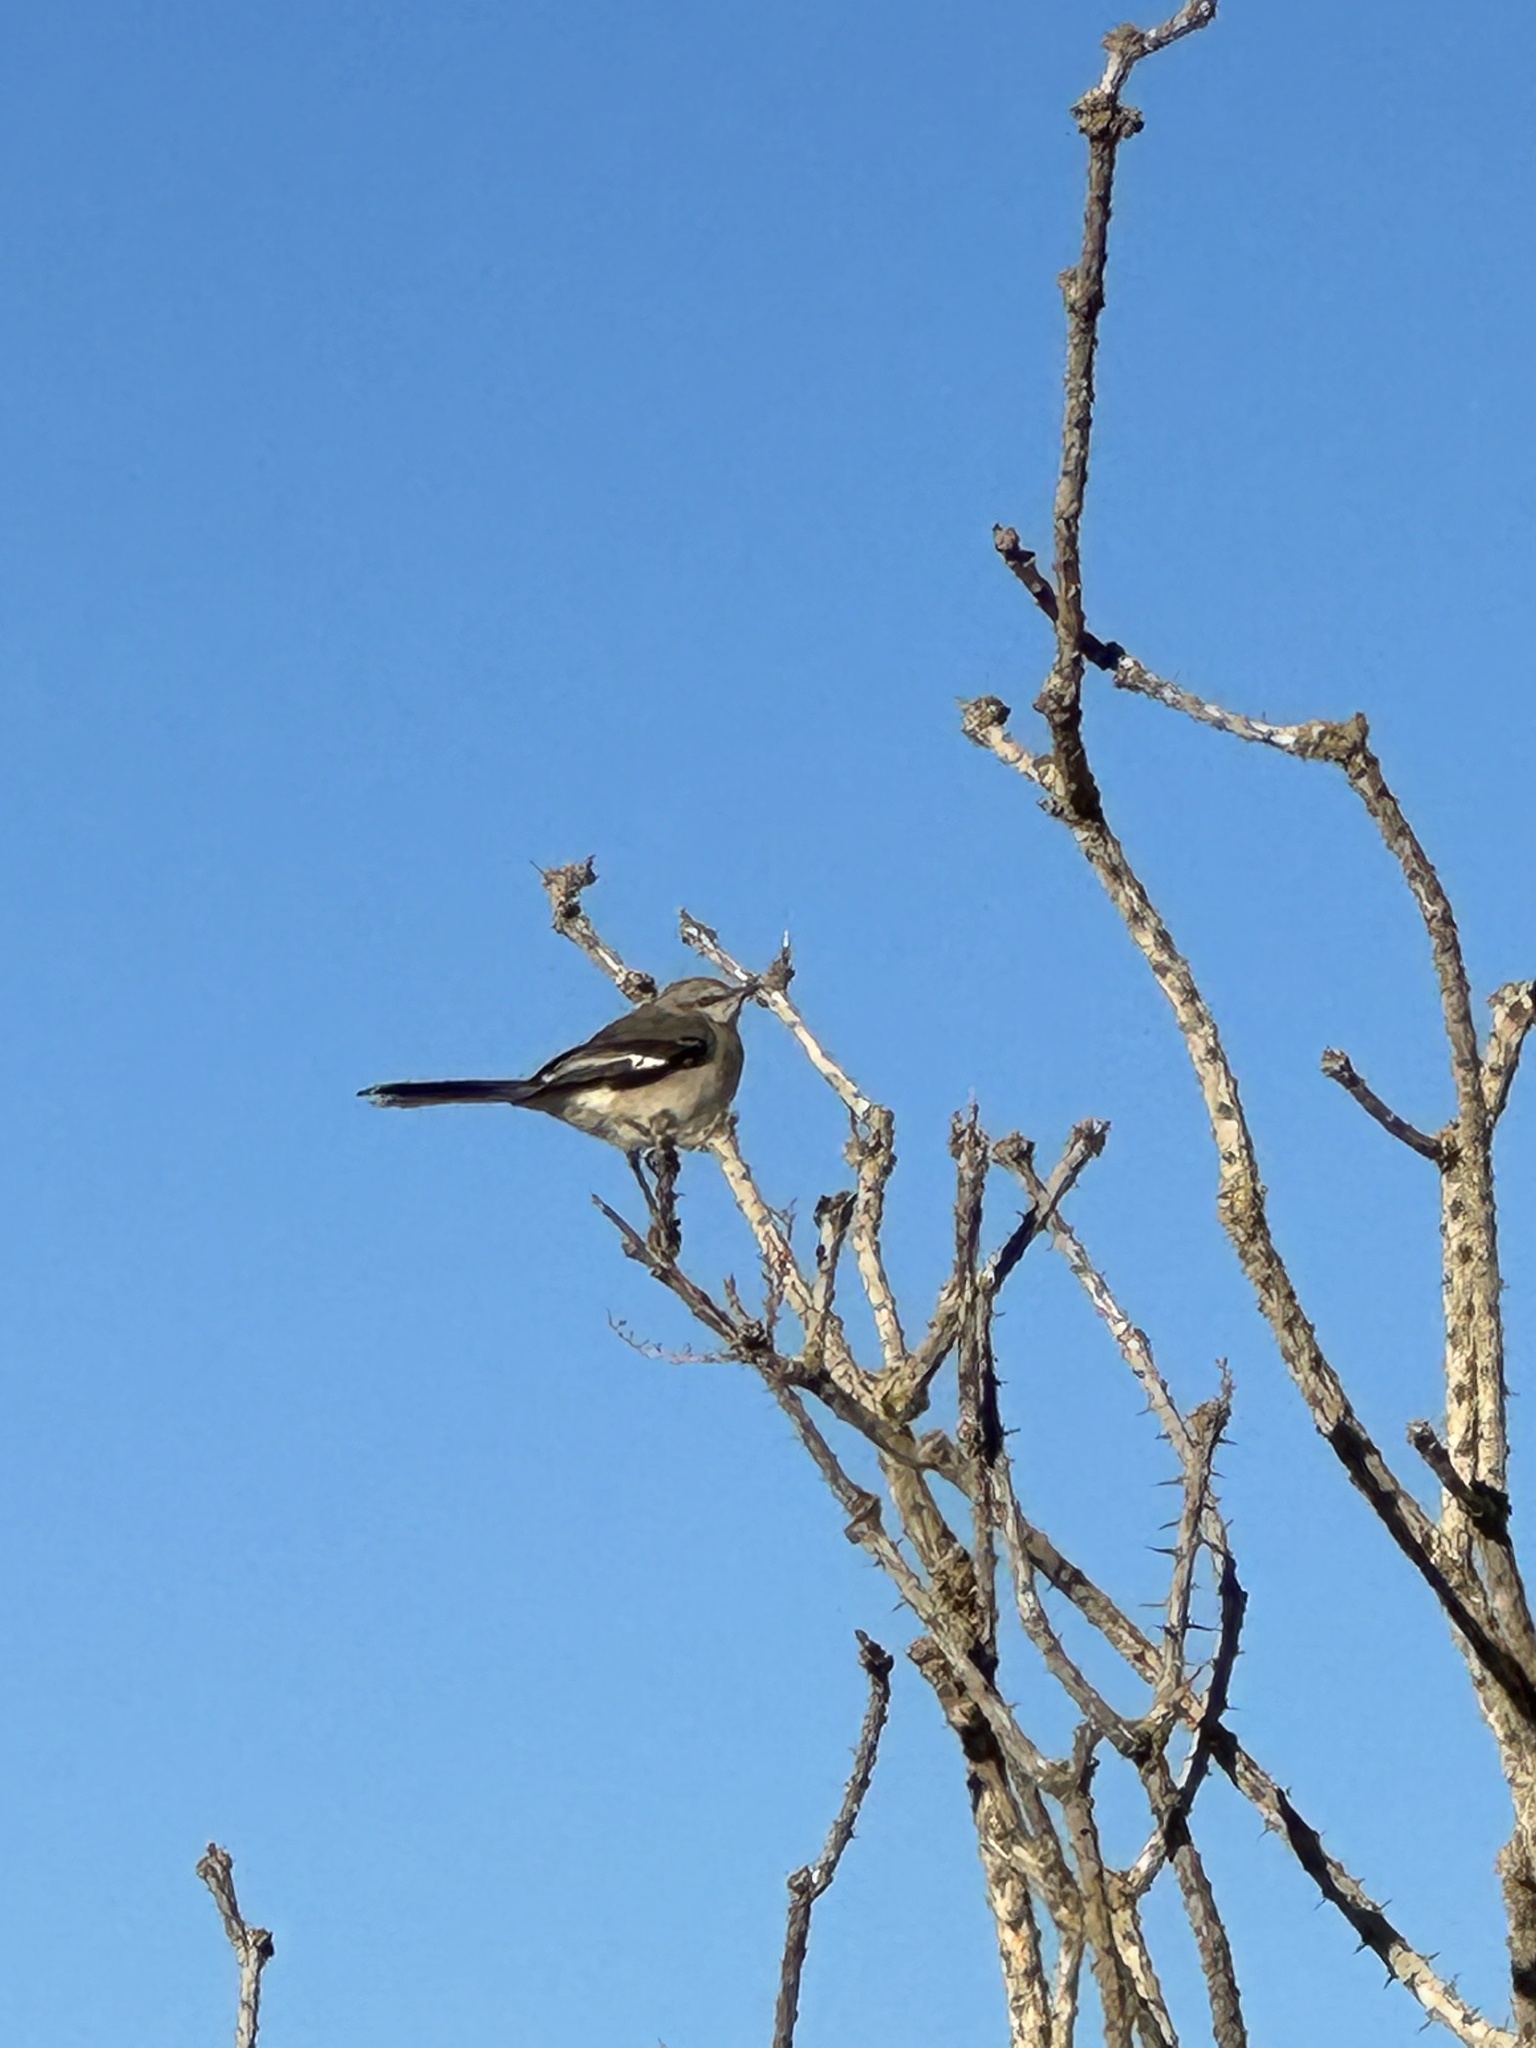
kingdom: Animalia
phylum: Chordata
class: Aves
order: Passeriformes
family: Mimidae
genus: Mimus
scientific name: Mimus polyglottos
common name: Northern mockingbird
